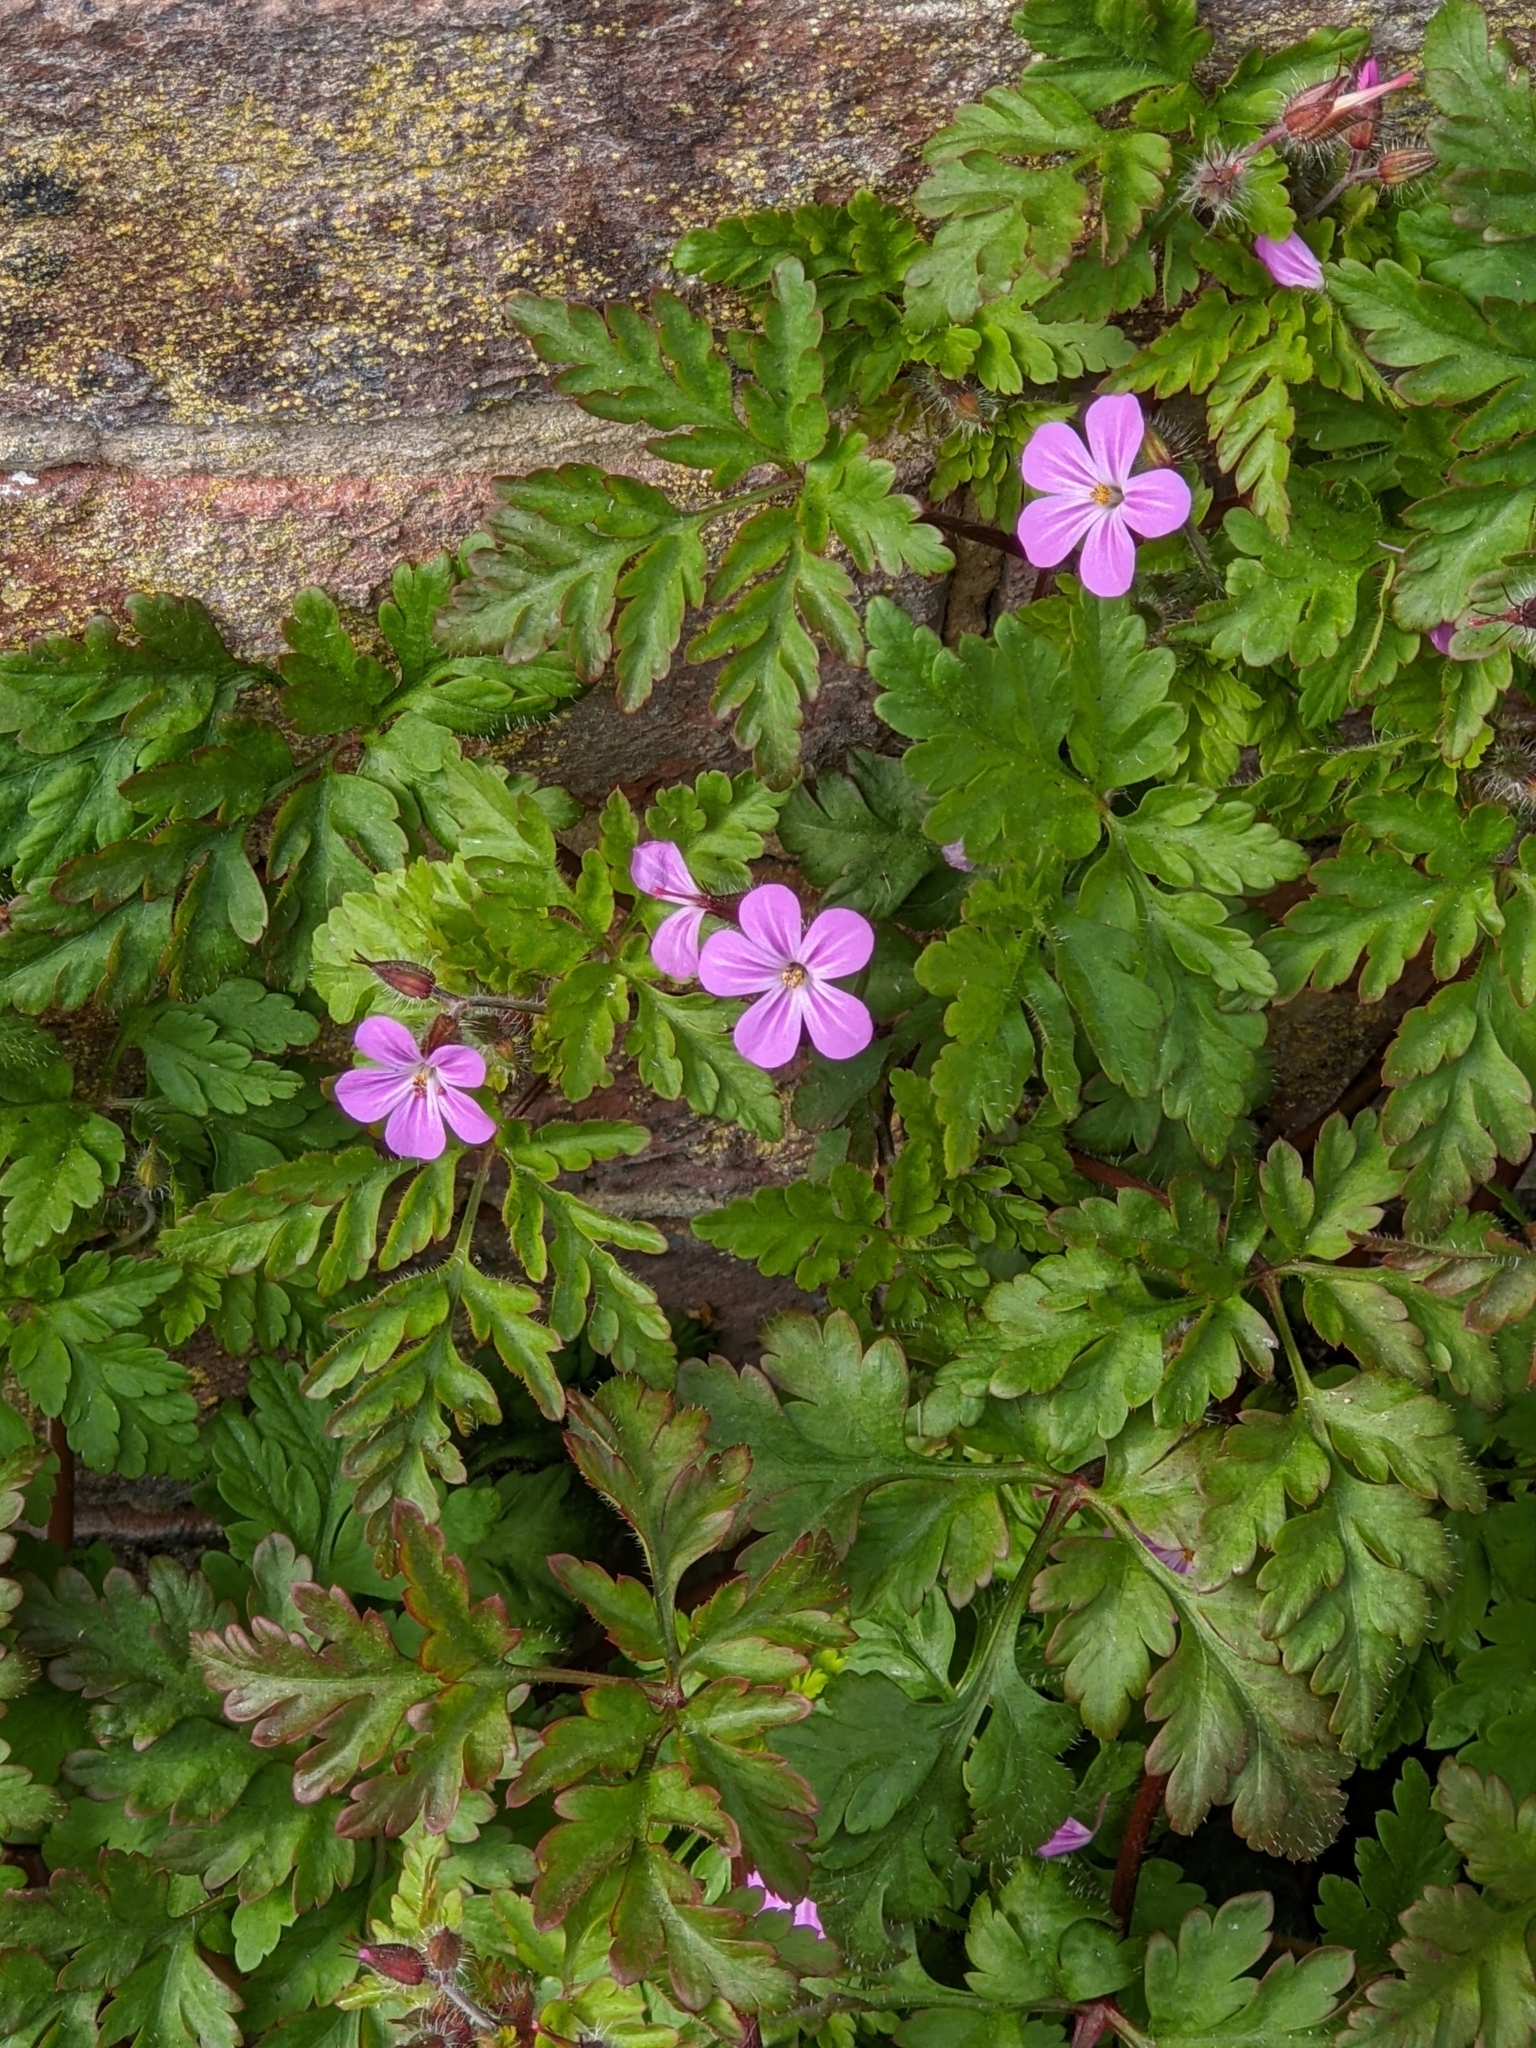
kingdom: Plantae
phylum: Tracheophyta
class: Magnoliopsida
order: Geraniales
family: Geraniaceae
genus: Geranium
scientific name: Geranium robertianum
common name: Herb-robert
